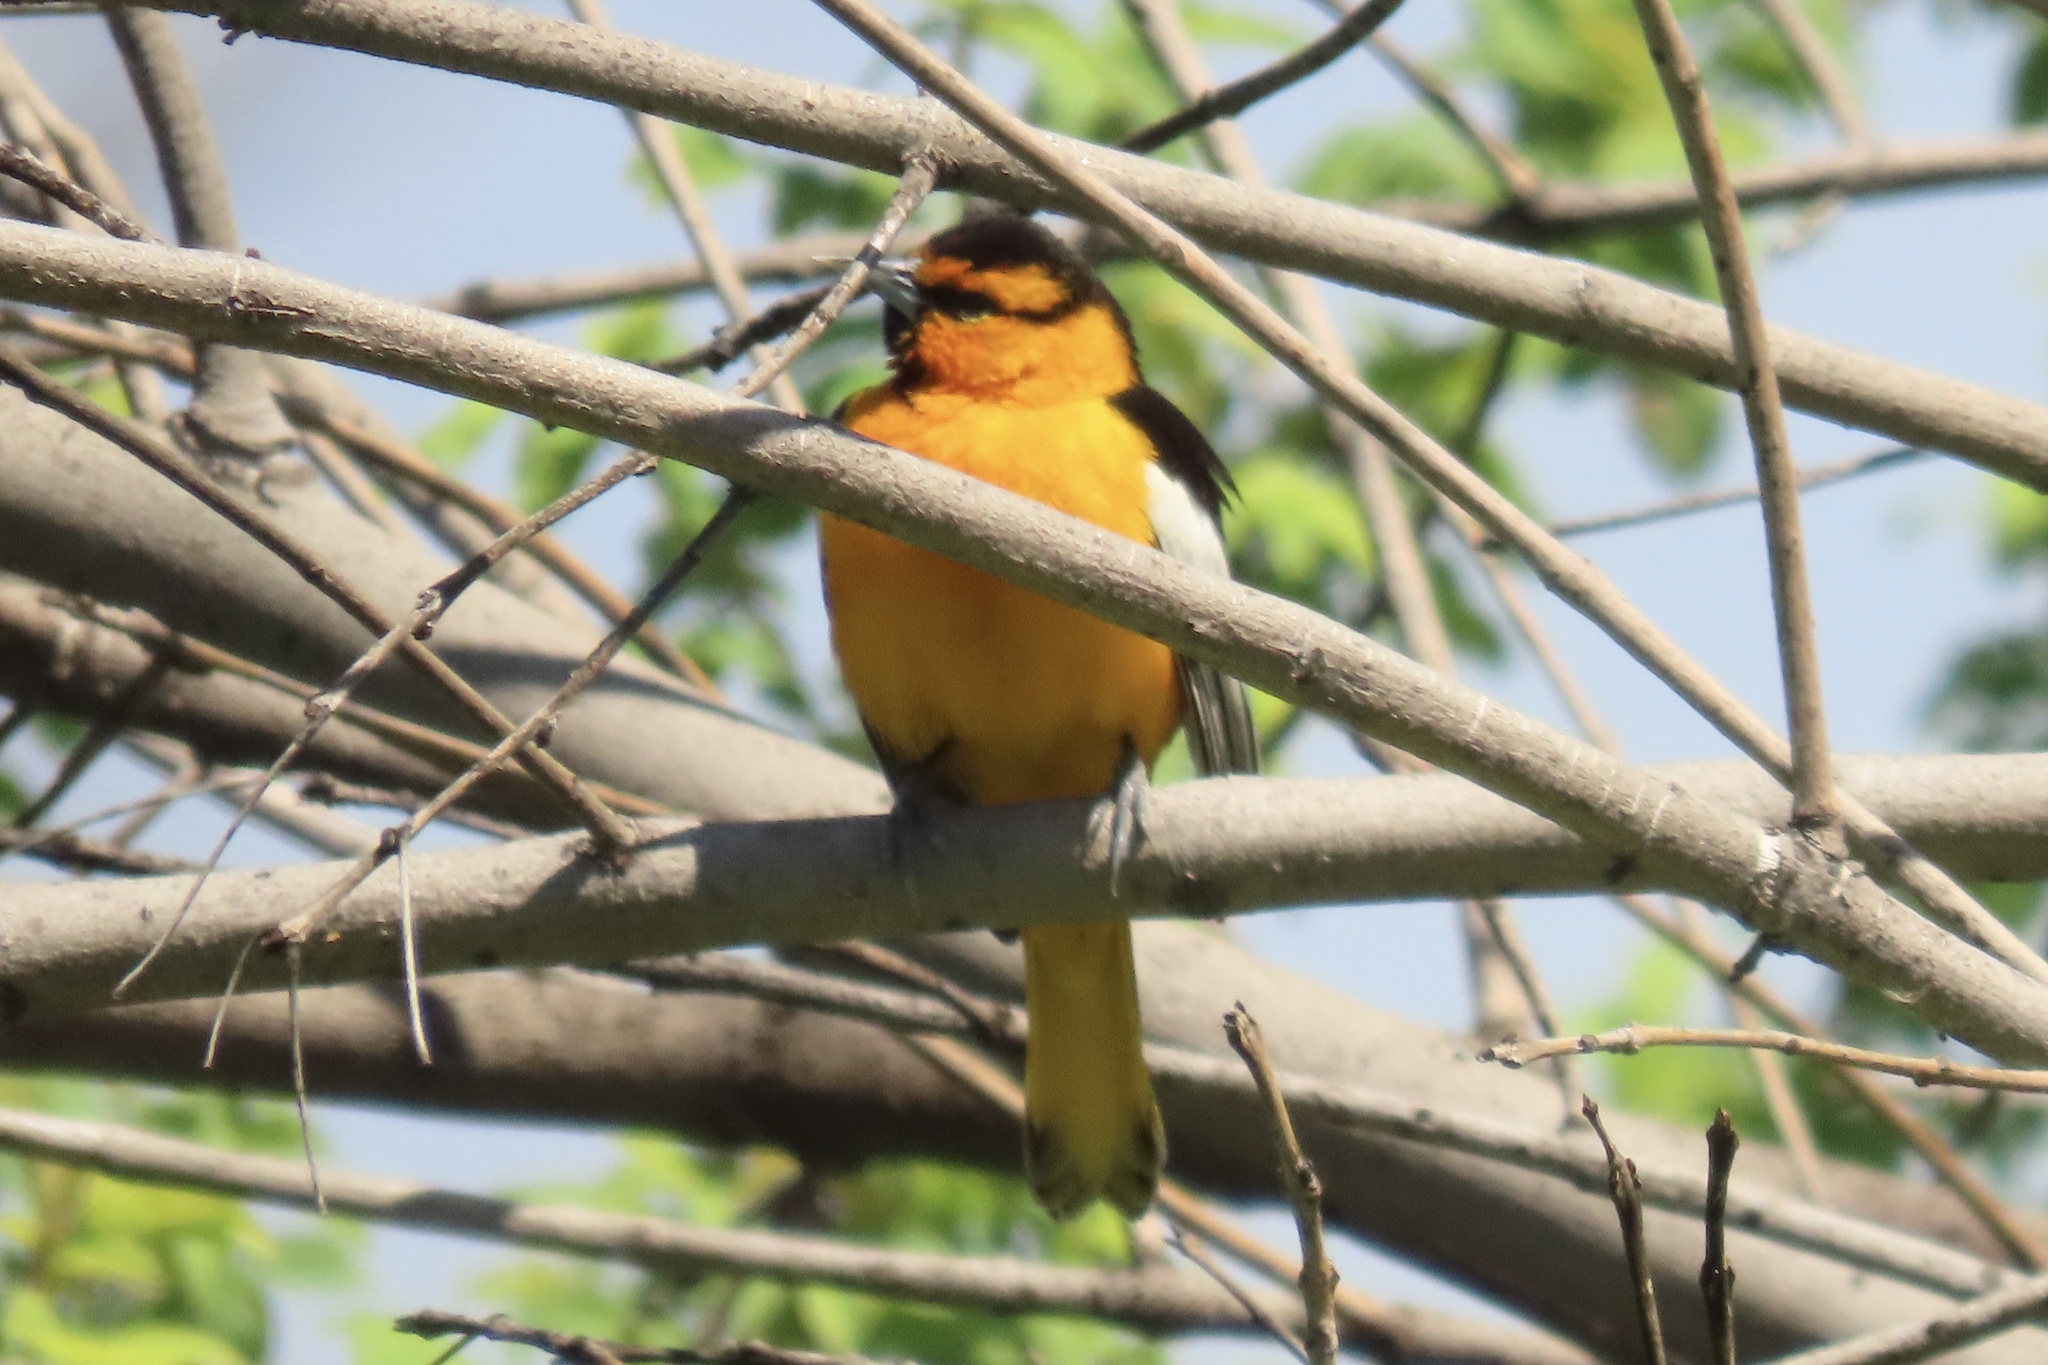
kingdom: Animalia
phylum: Chordata
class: Aves
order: Passeriformes
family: Icteridae
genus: Icterus
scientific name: Icterus bullockii
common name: Bullock's oriole
